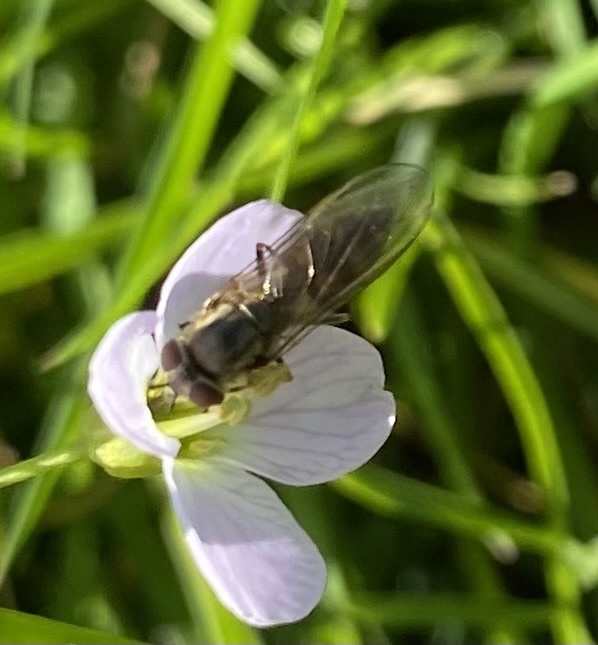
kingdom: Animalia
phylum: Arthropoda
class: Insecta
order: Diptera
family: Syrphidae
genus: Platycheirus
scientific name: Platycheirus albimanus
